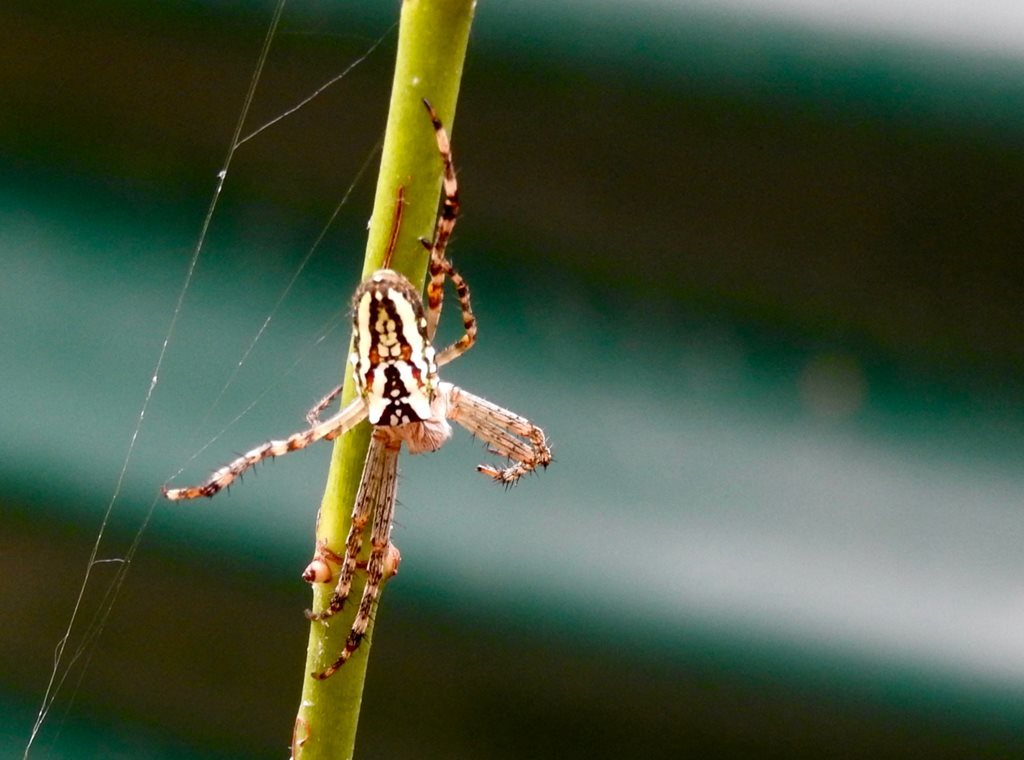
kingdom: Animalia
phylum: Arthropoda
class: Arachnida
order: Araneae
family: Araneidae
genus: Plebs
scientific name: Plebs bradleyi
